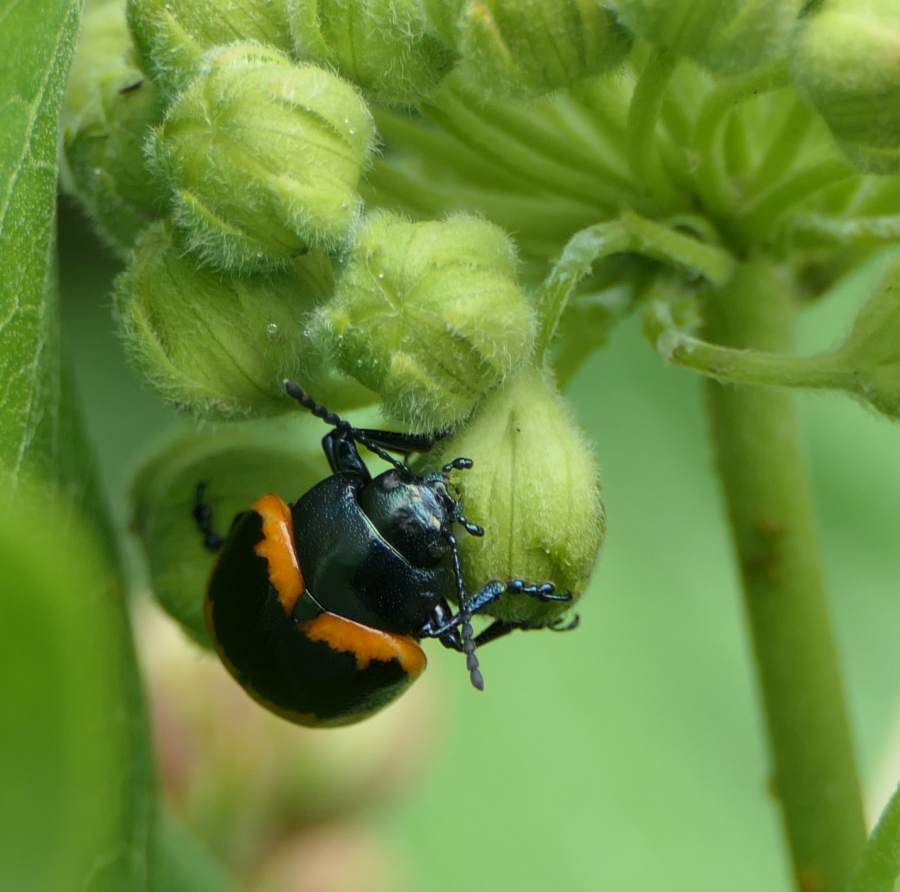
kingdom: Animalia
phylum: Arthropoda
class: Insecta
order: Coleoptera
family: Chrysomelidae
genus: Labidomera
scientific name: Labidomera clivicollis
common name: Swamp milkweed leaf beetle
